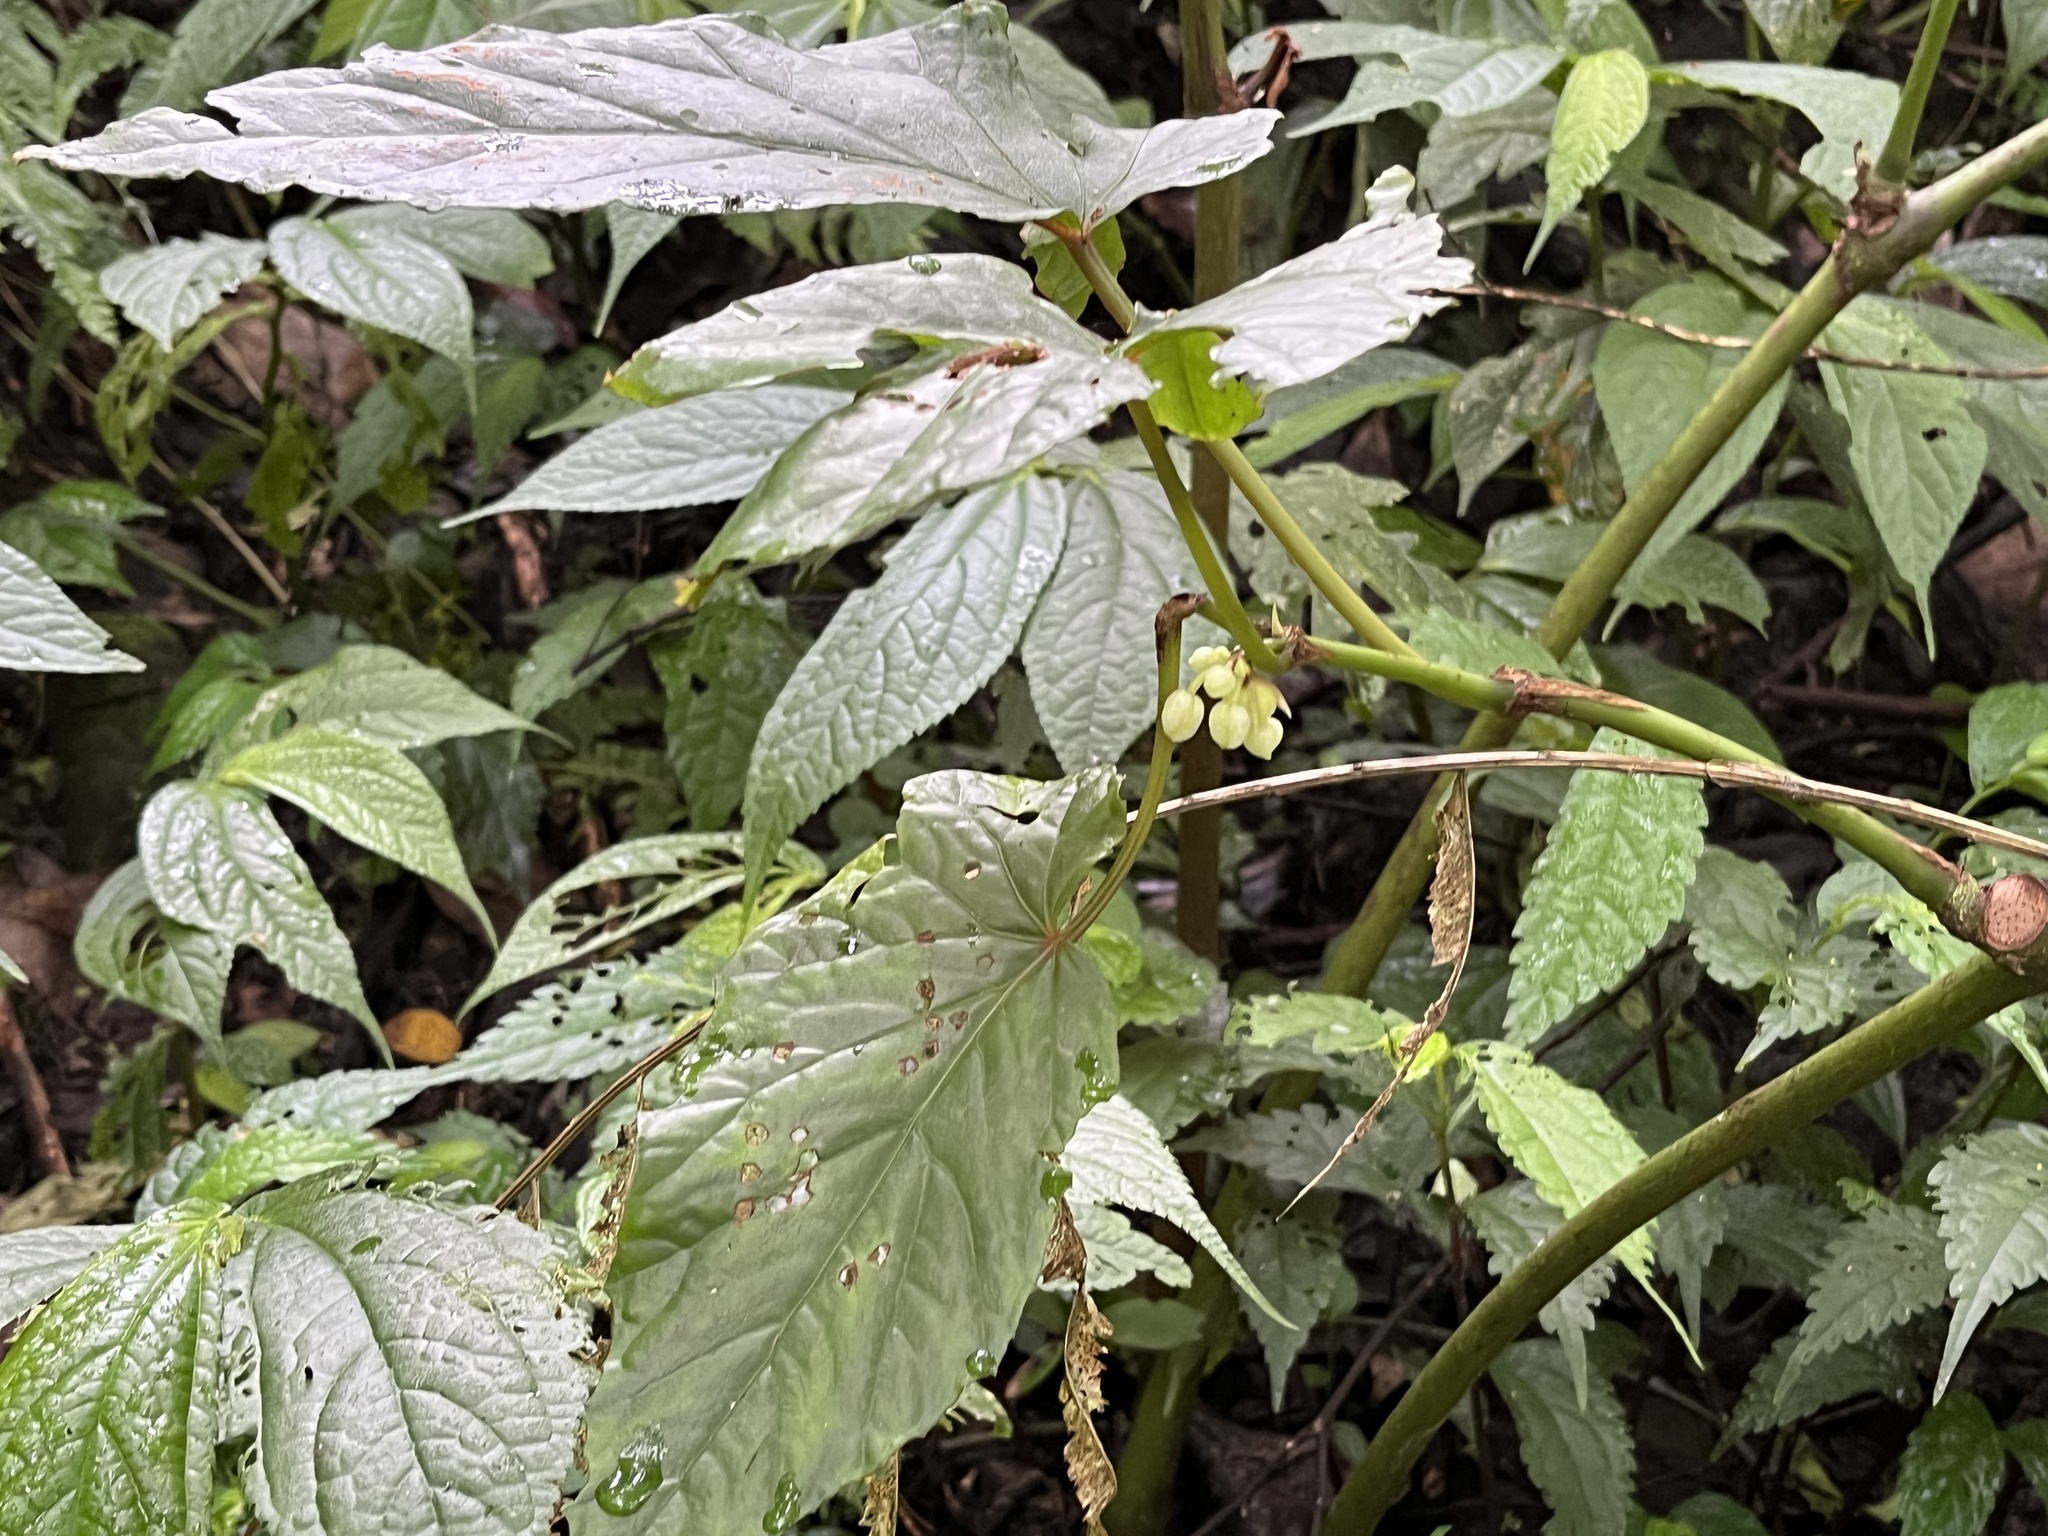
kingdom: Plantae
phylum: Tracheophyta
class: Magnoliopsida
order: Cucurbitales
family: Begoniaceae
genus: Begonia
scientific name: Begonia longifolia
